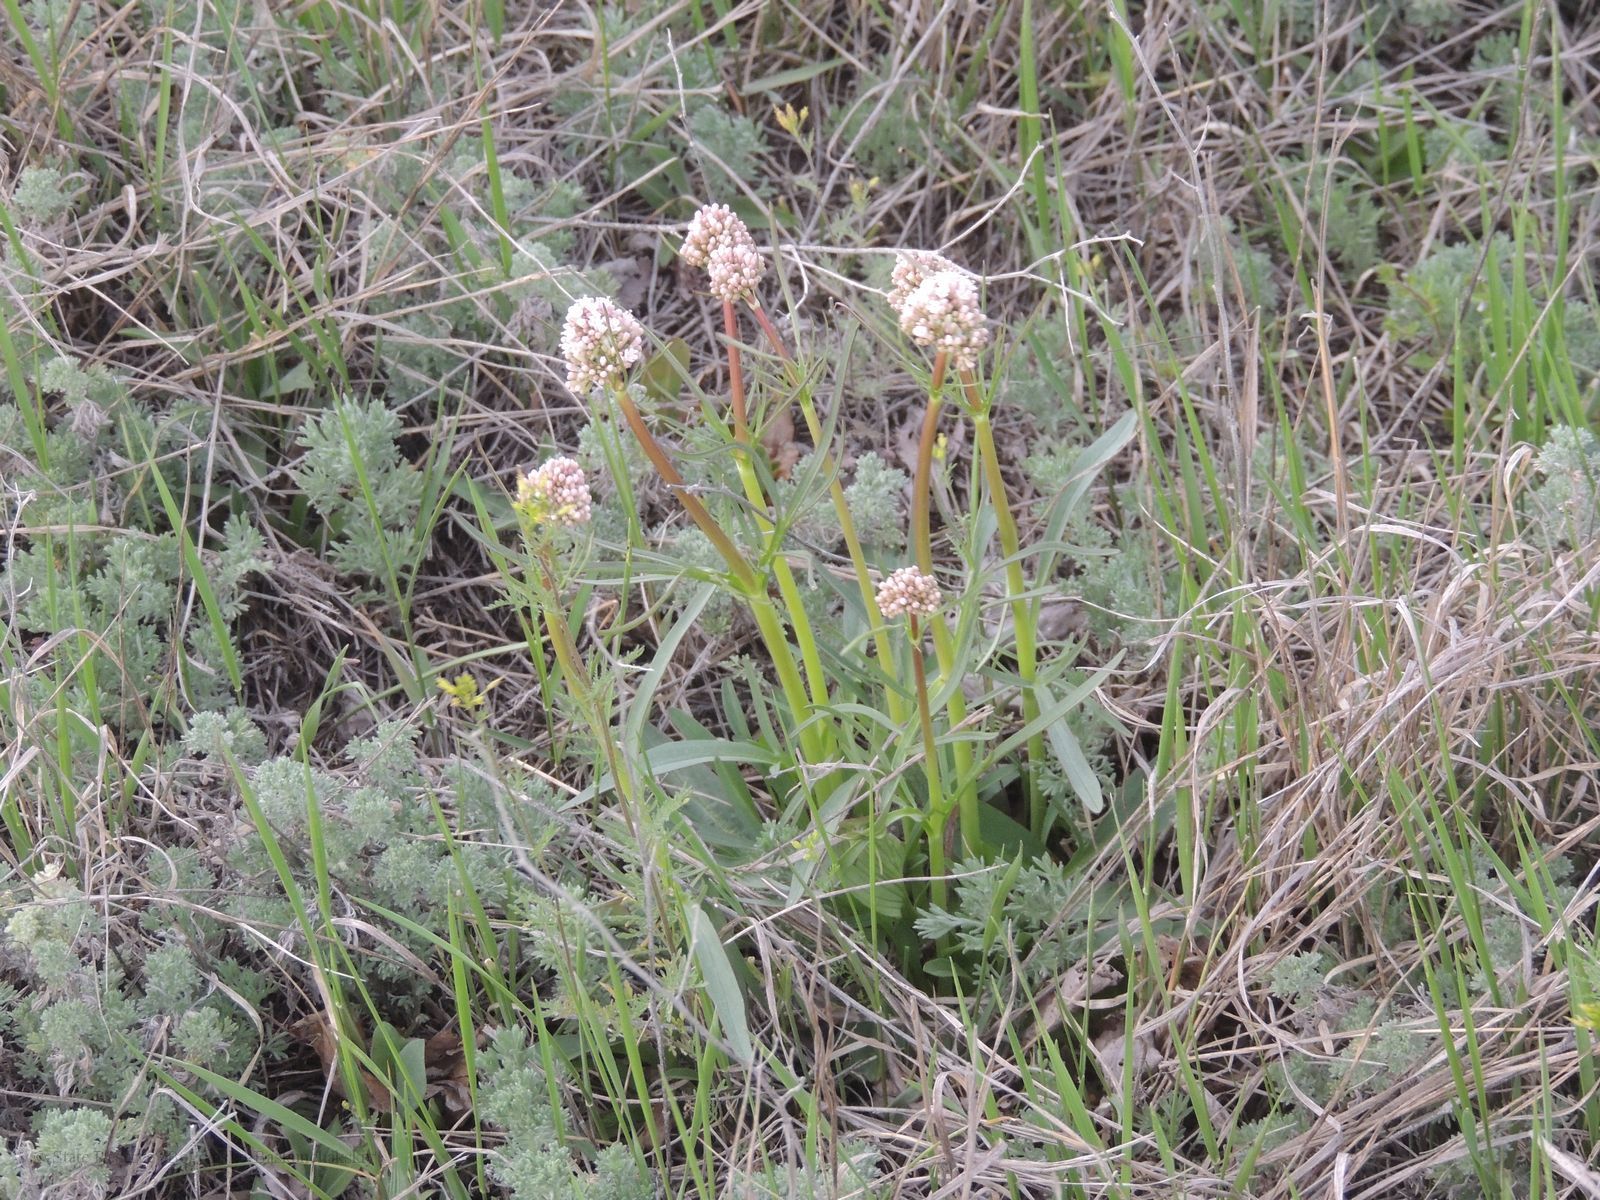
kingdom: Plantae
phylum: Tracheophyta
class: Magnoliopsida
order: Dipsacales
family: Caprifoliaceae
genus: Valeriana
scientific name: Valeriana tuberosa
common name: Tuberous valerian
